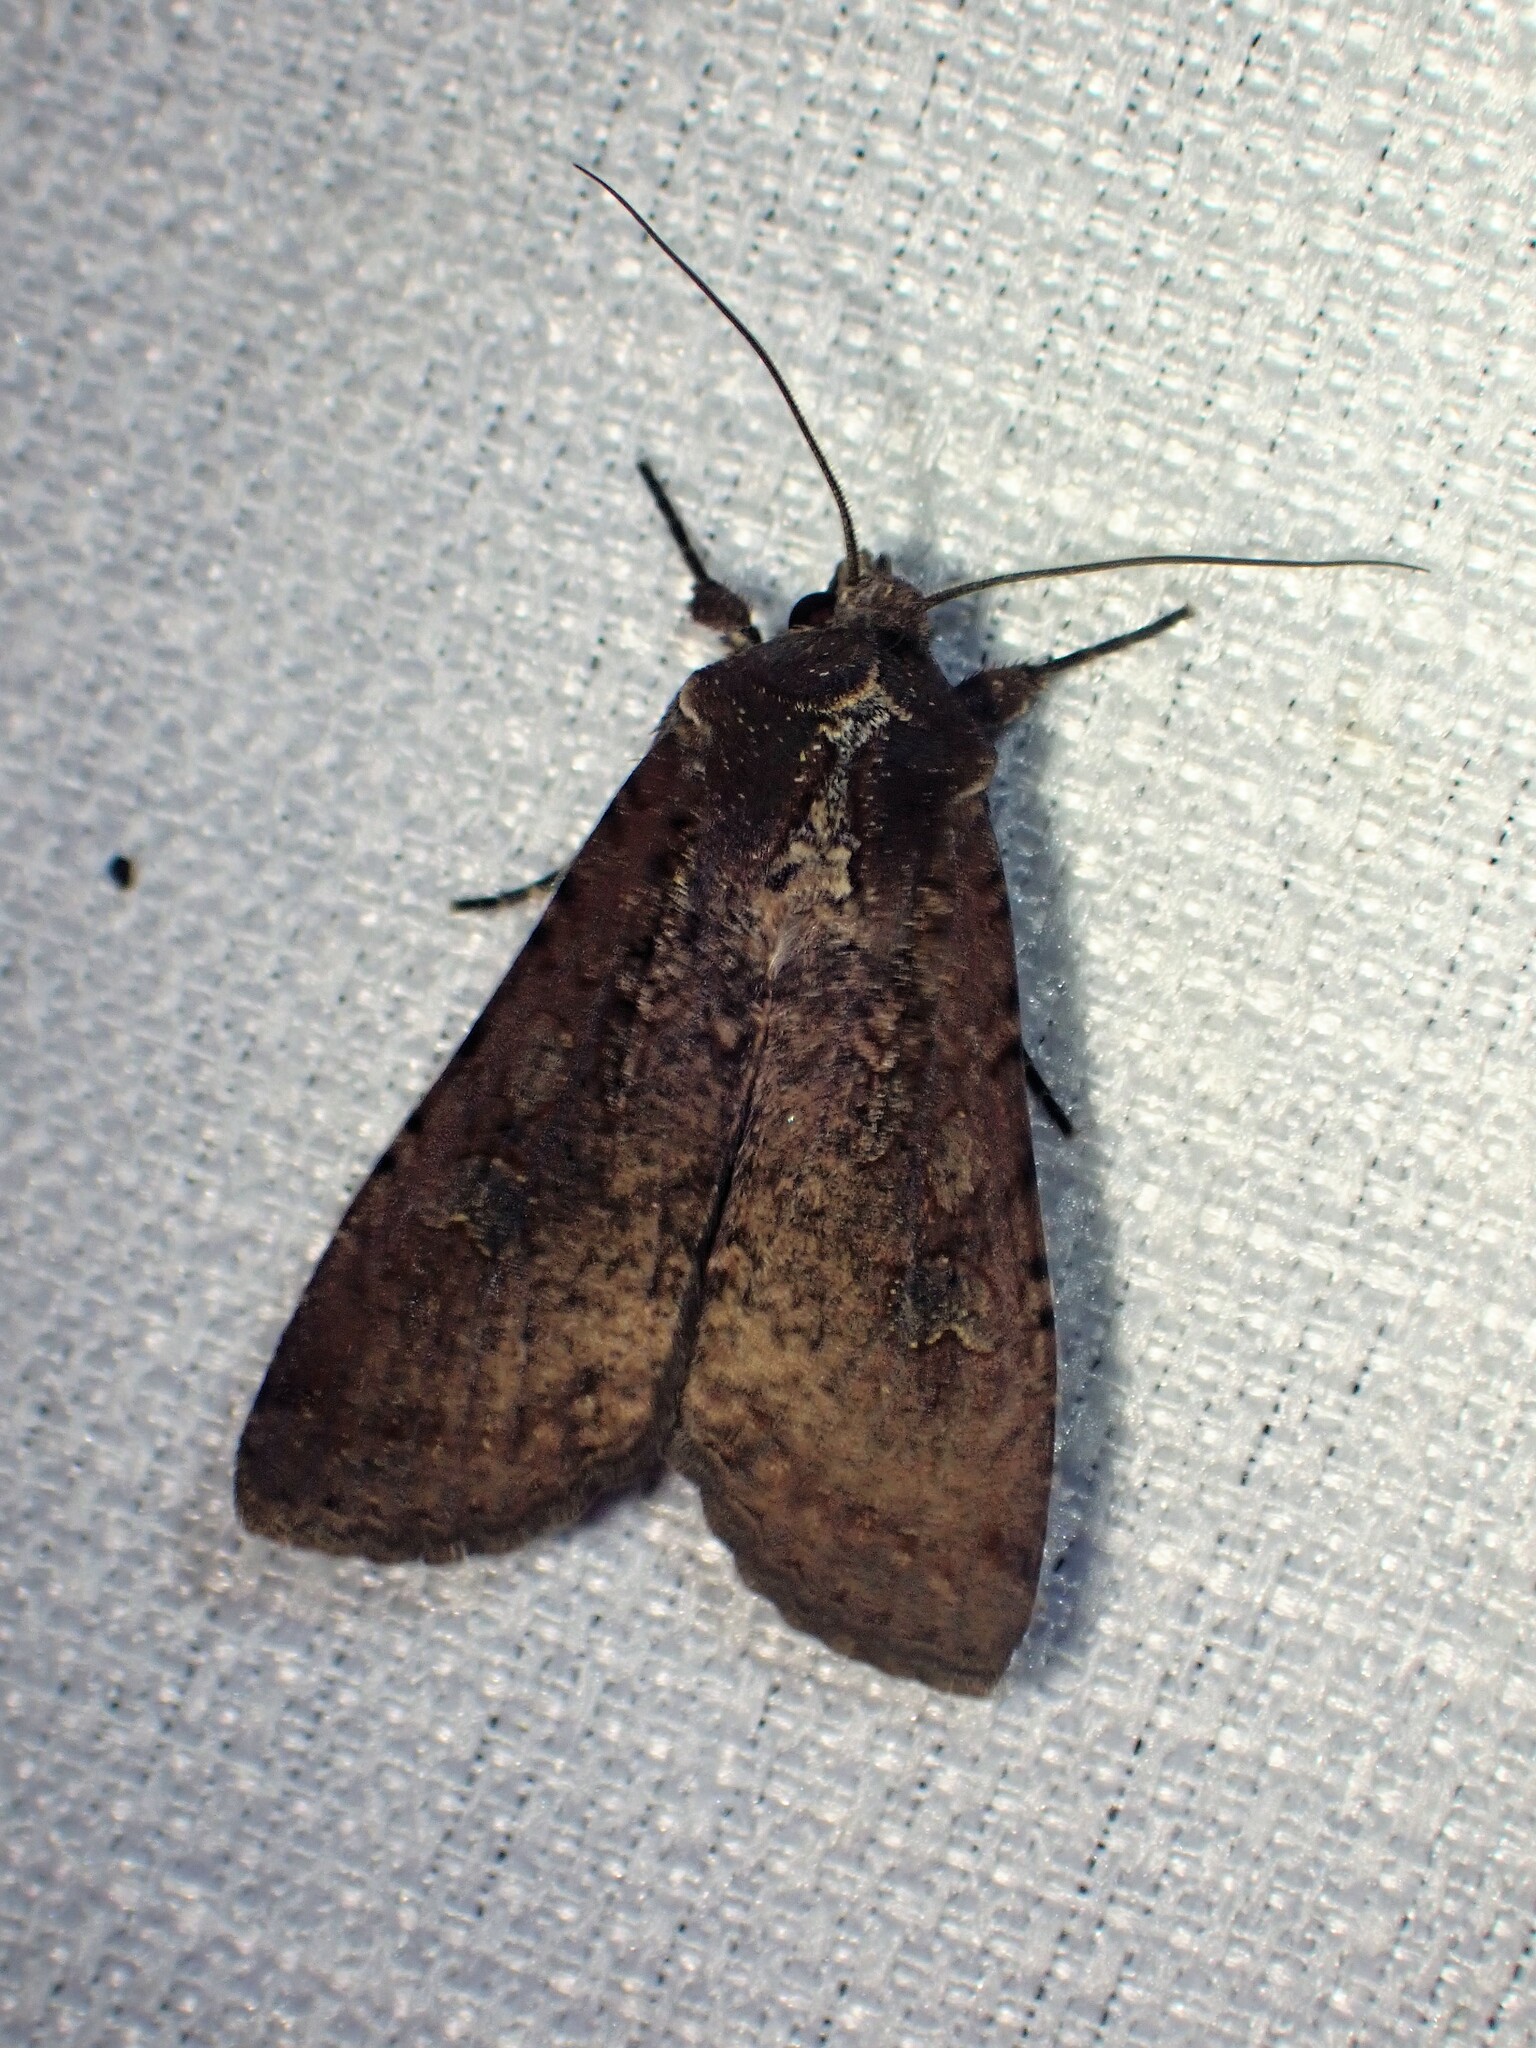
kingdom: Animalia
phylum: Arthropoda
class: Insecta
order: Lepidoptera
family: Noctuidae
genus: Peridroma
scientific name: Peridroma saucia
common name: Pearly underwing
